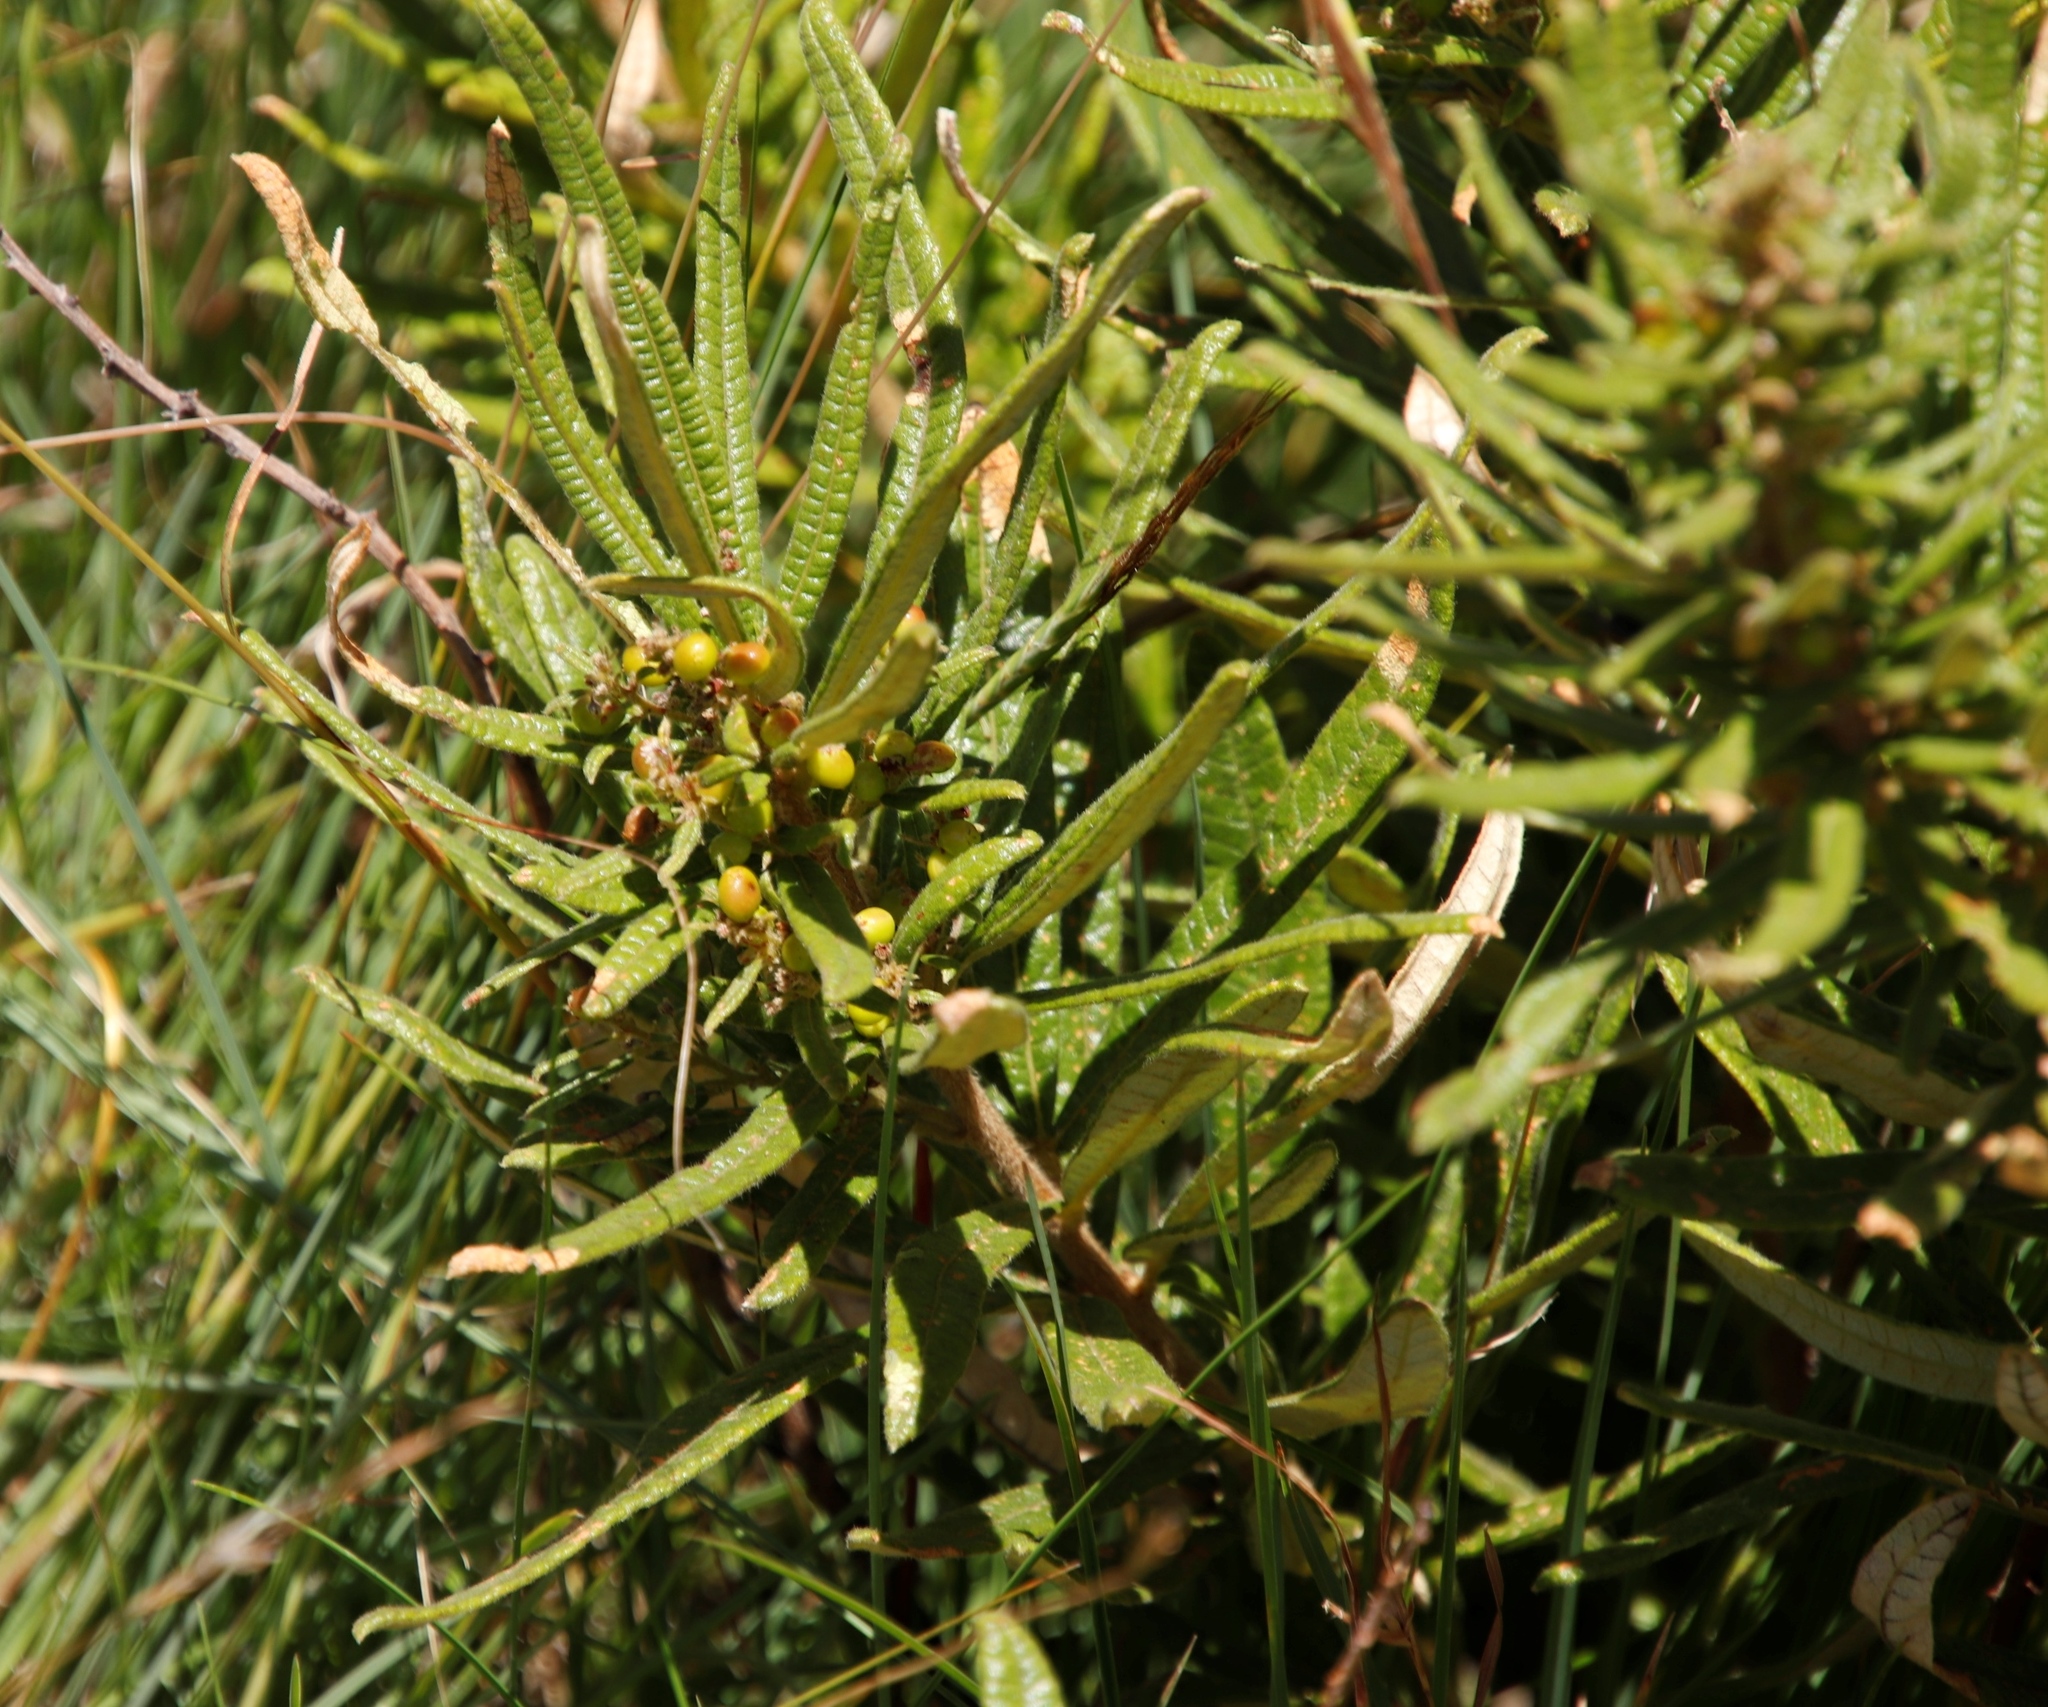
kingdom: Plantae
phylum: Tracheophyta
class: Magnoliopsida
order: Sapindales
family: Anacardiaceae
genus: Searsia
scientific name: Searsia discolor
